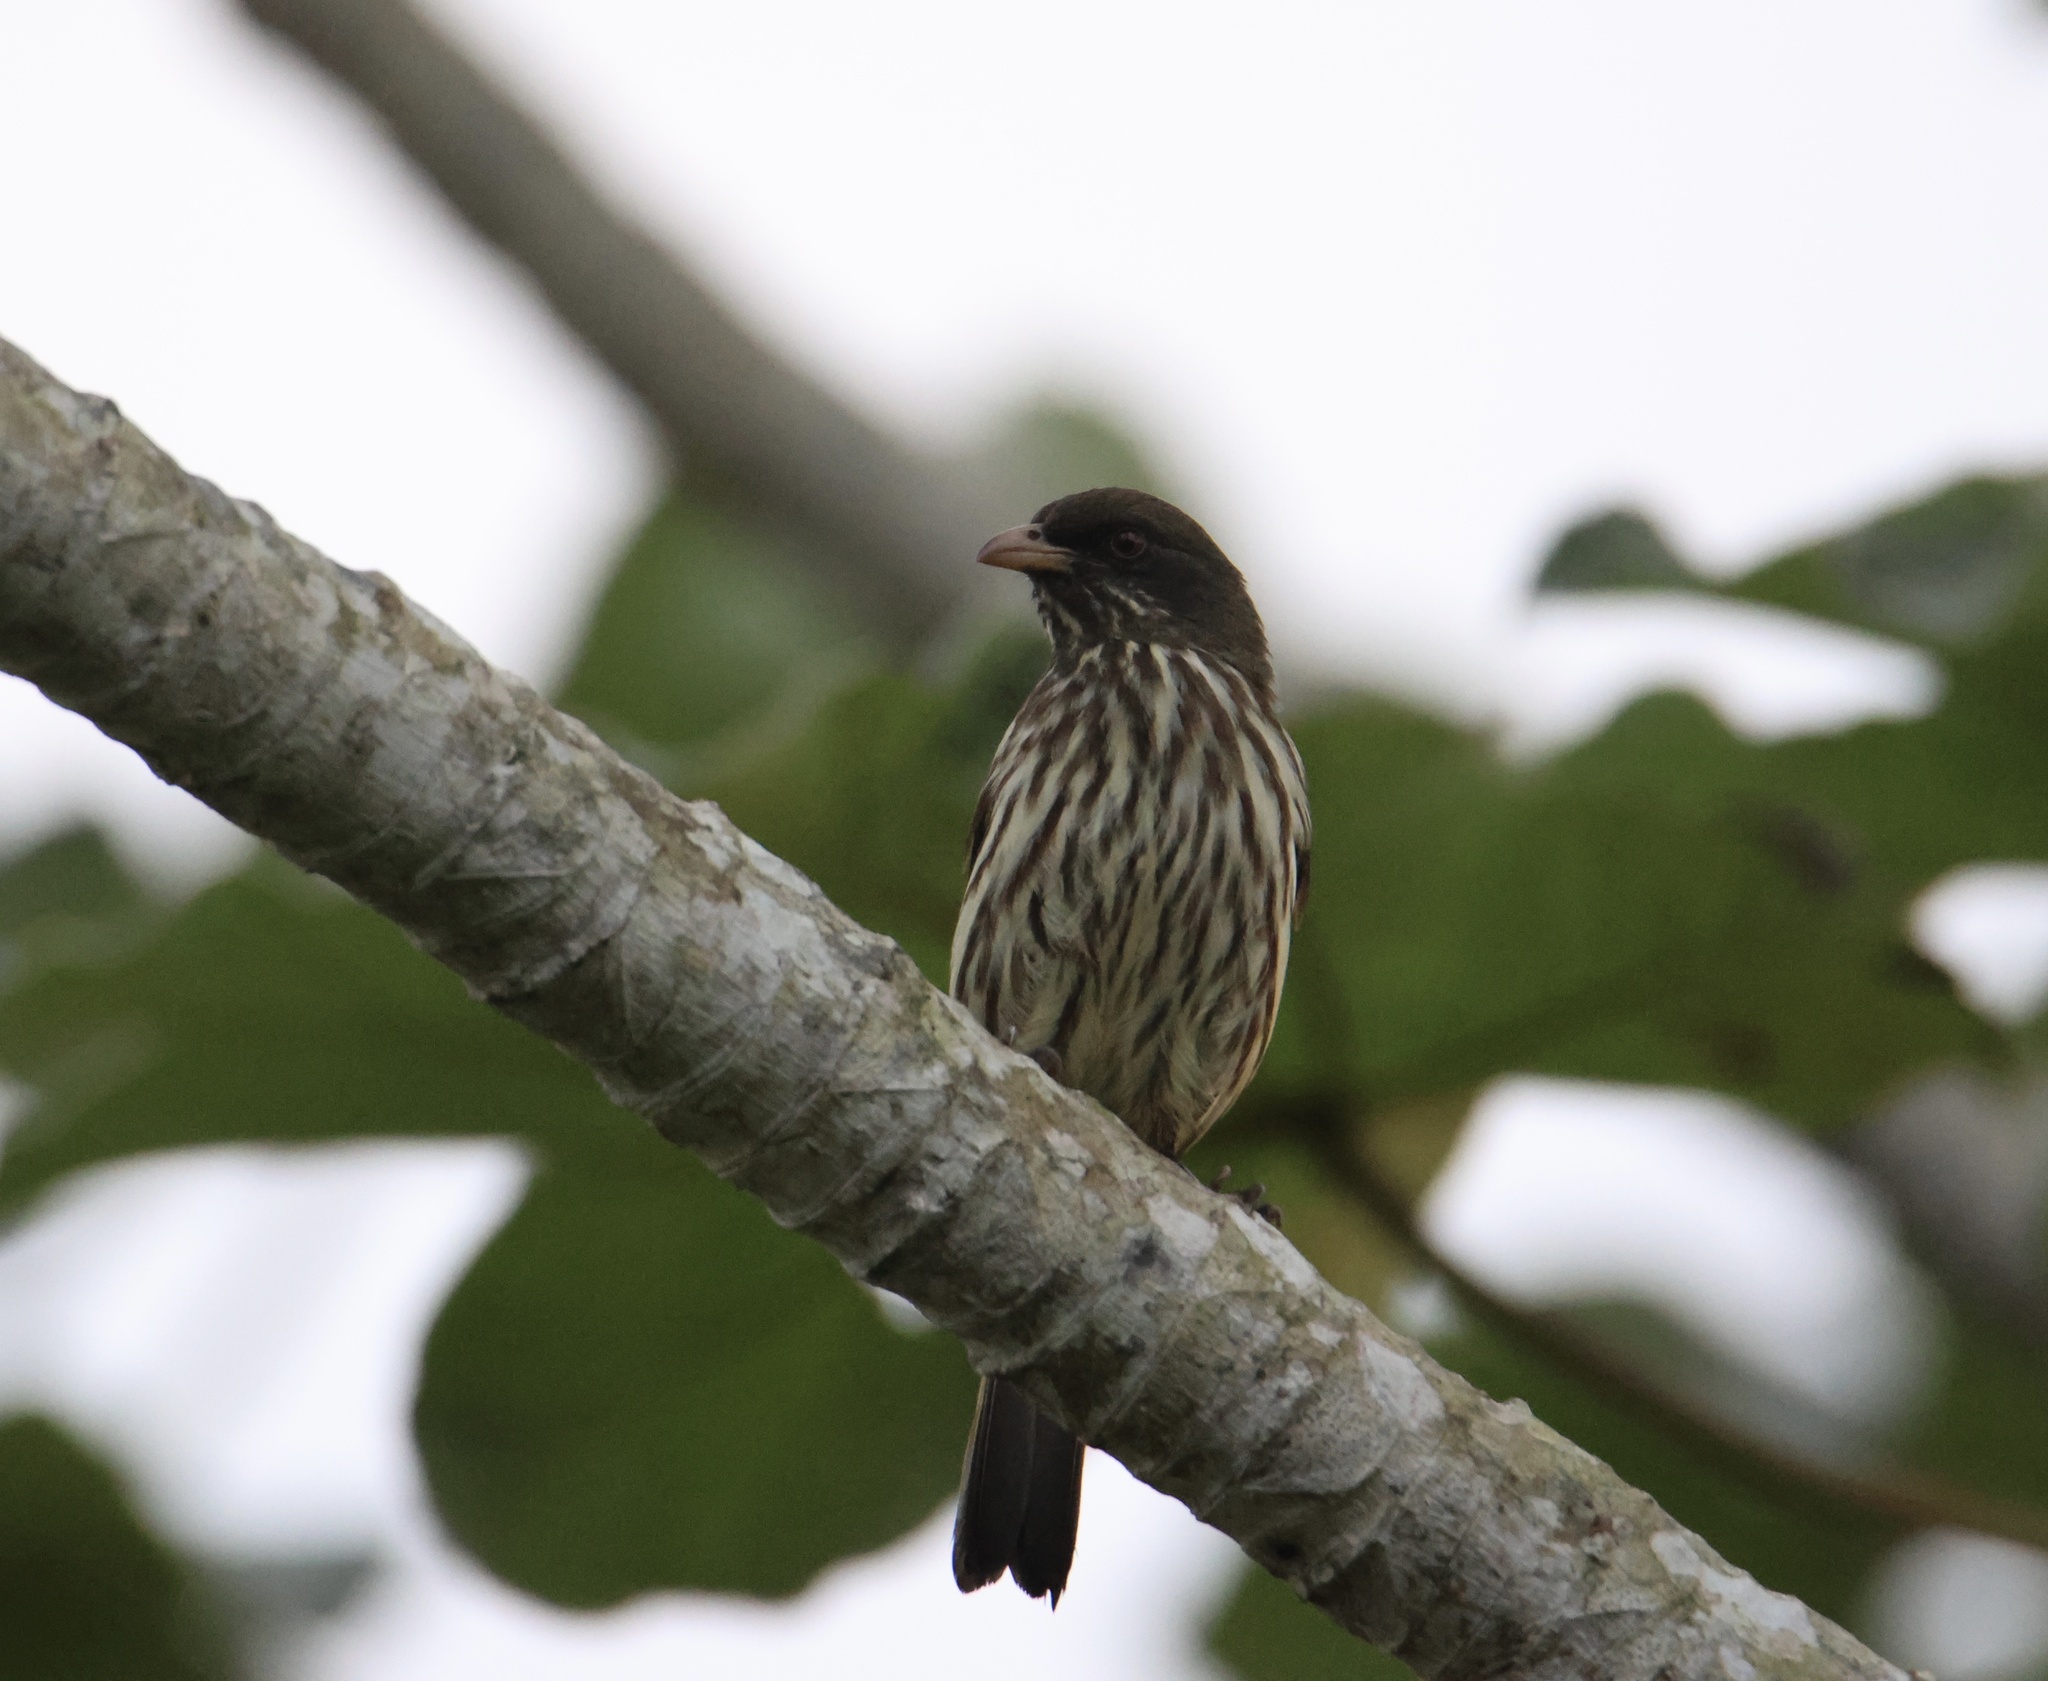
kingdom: Animalia
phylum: Chordata
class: Aves
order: Passeriformes
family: Dulidae
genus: Dulus
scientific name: Dulus dominicus
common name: Palmchat
